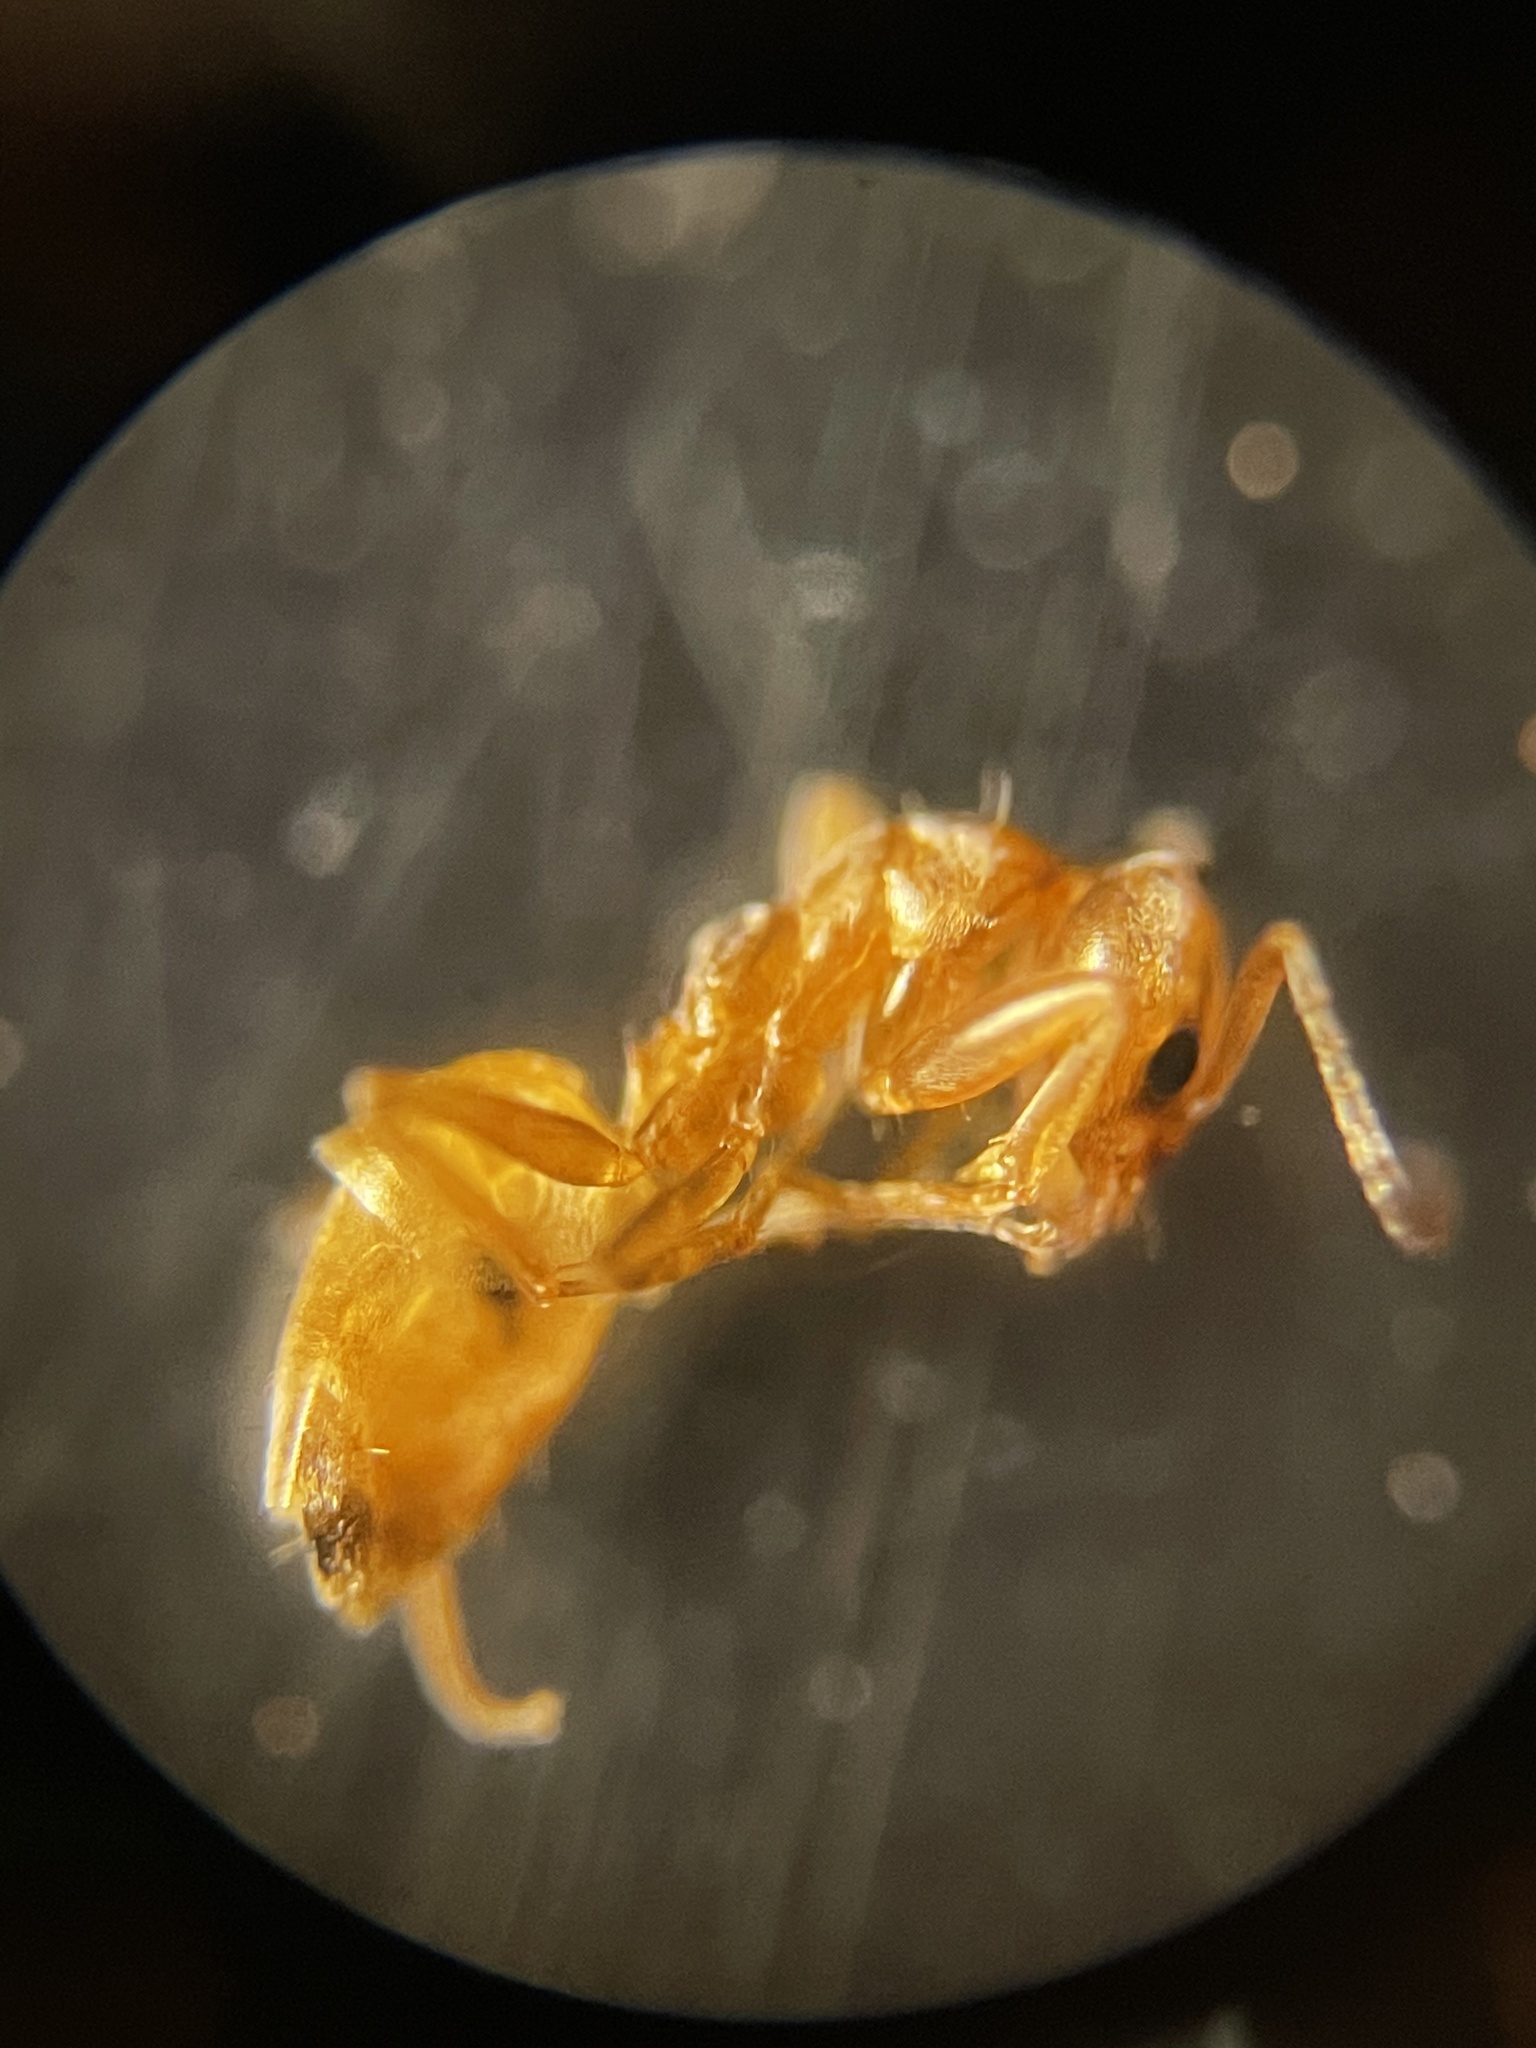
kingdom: Animalia
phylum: Arthropoda
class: Insecta
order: Hymenoptera
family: Formicidae
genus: Forelius
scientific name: Forelius pruinosus
